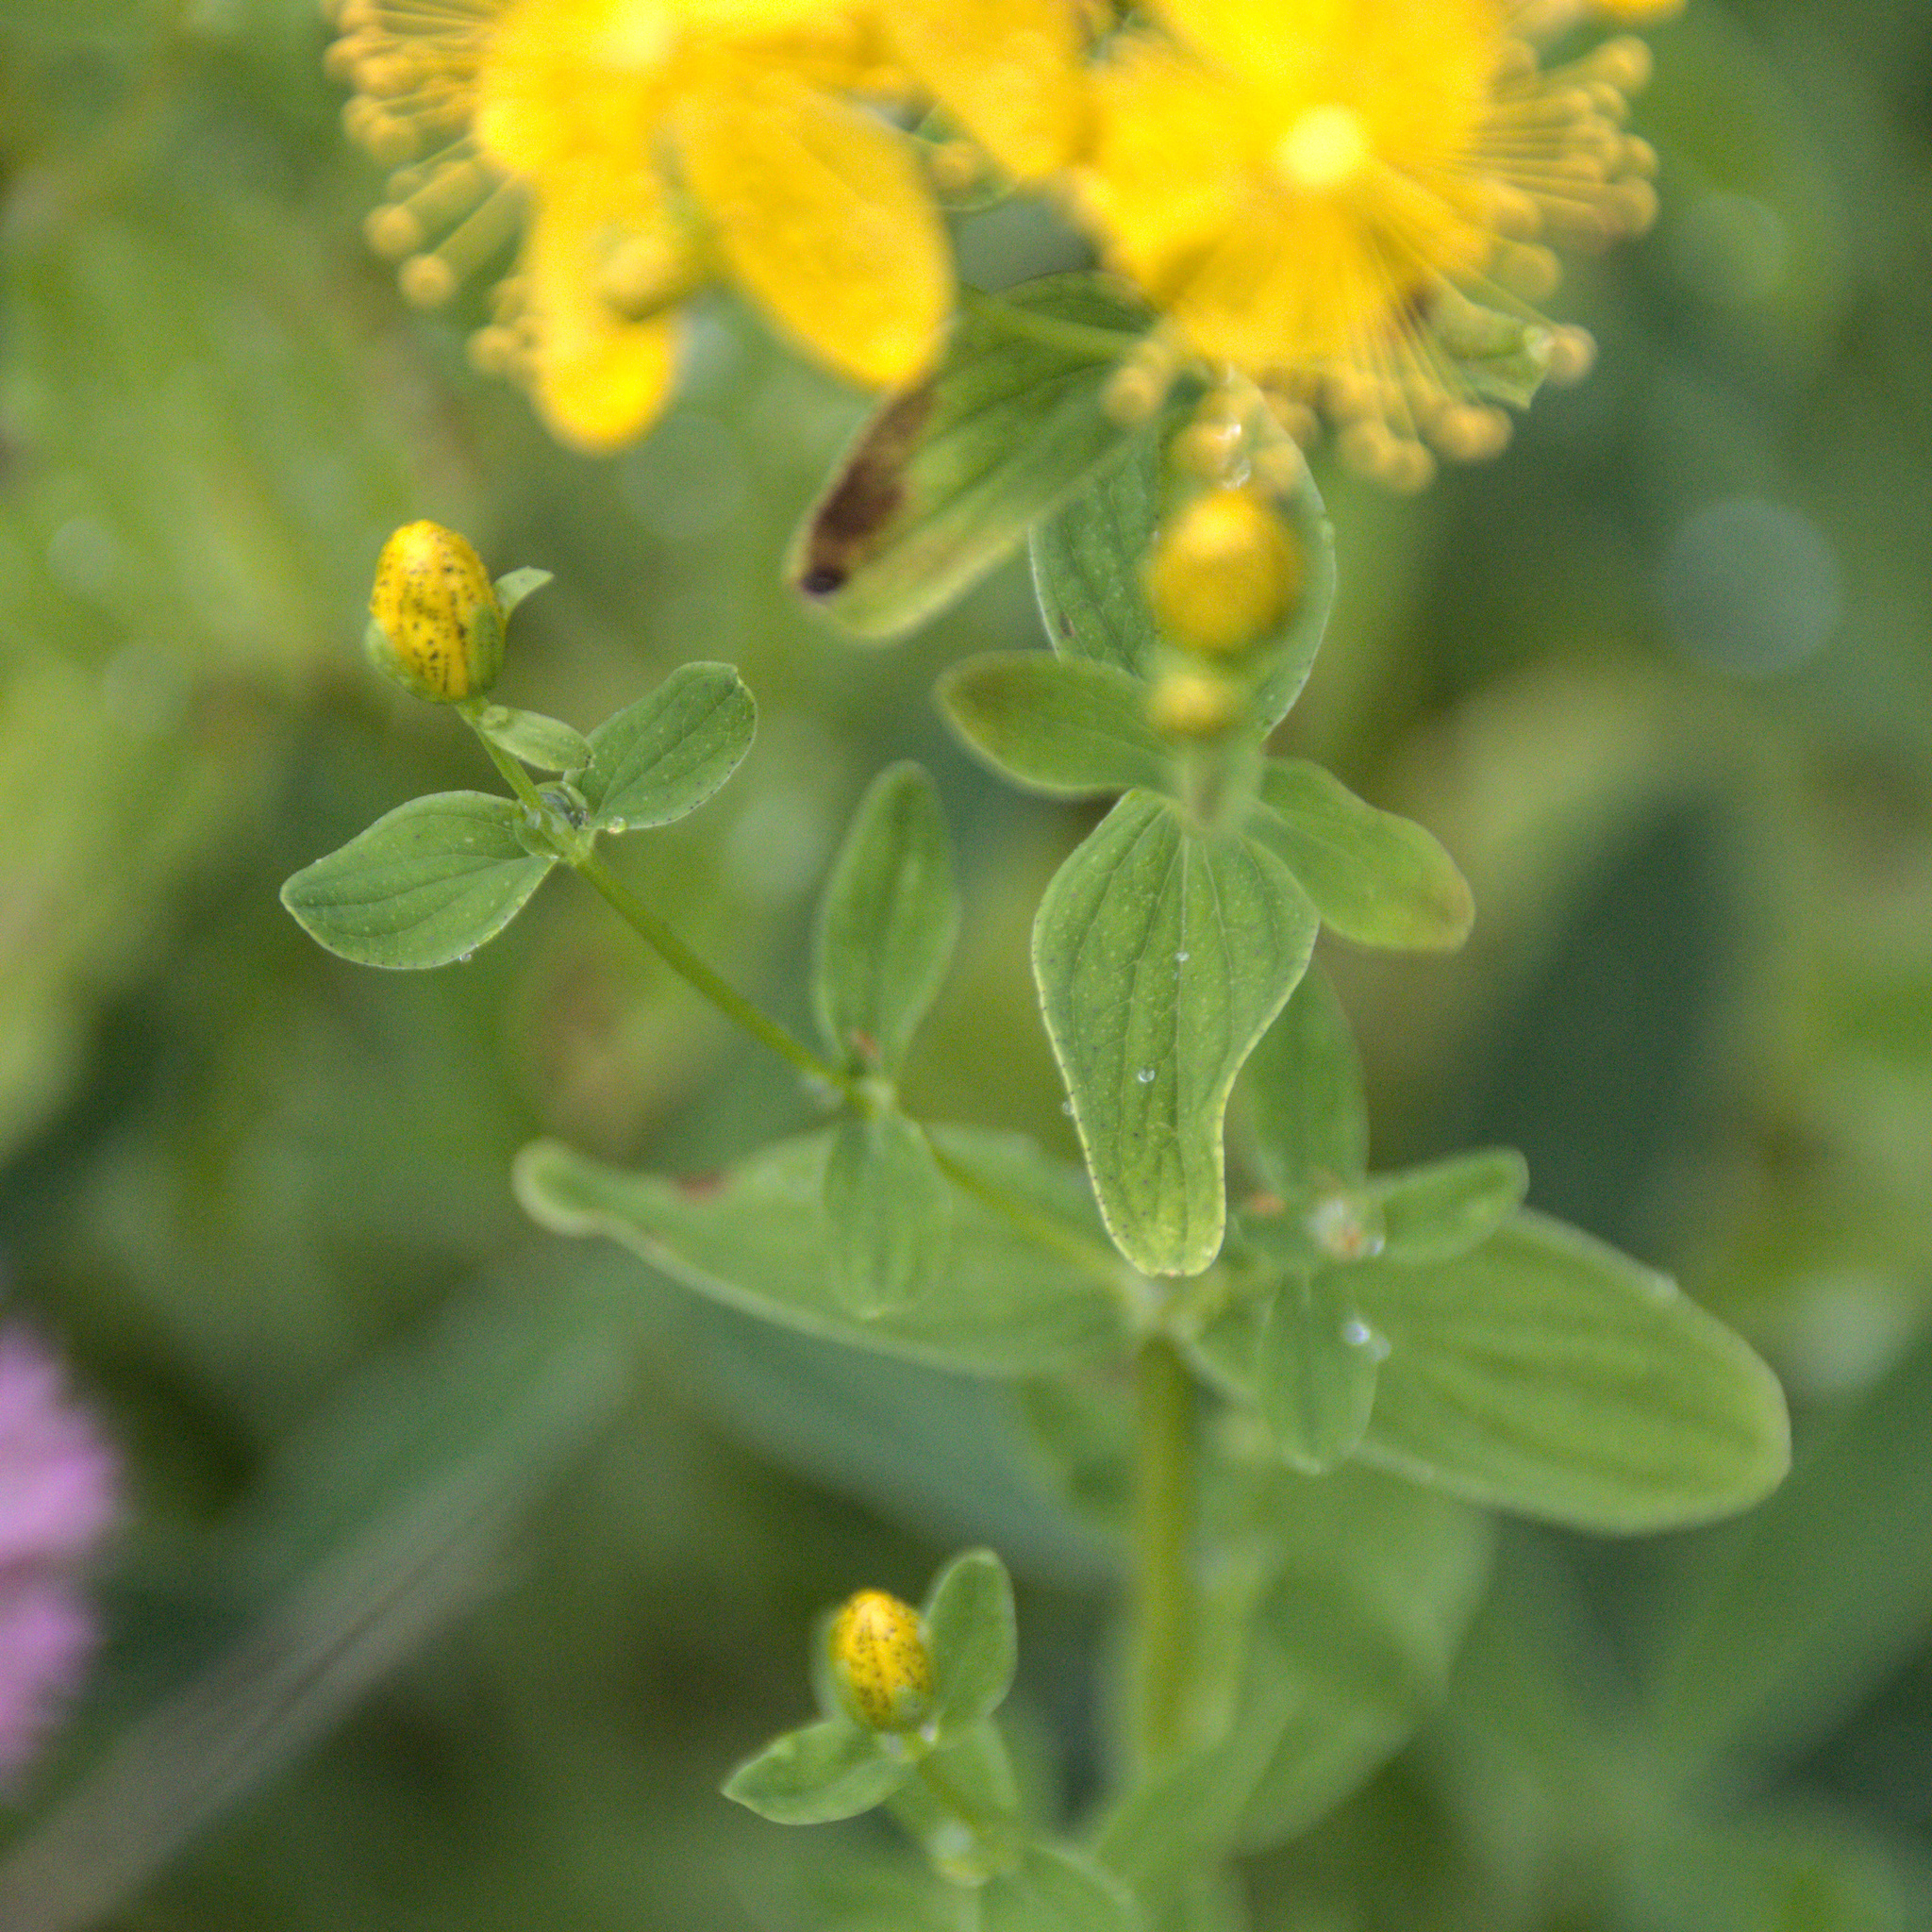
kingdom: Plantae
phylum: Tracheophyta
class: Magnoliopsida
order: Malpighiales
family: Hypericaceae
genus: Hypericum
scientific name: Hypericum maculatum
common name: Imperforate st. john's-wort
